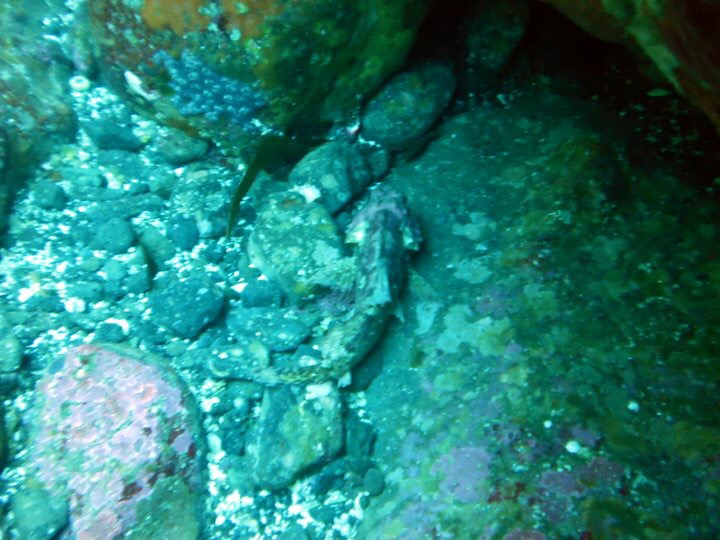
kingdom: Animalia
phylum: Chordata
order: Scorpaeniformes
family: Scorpaenidae
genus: Scorpaena
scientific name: Scorpaena
